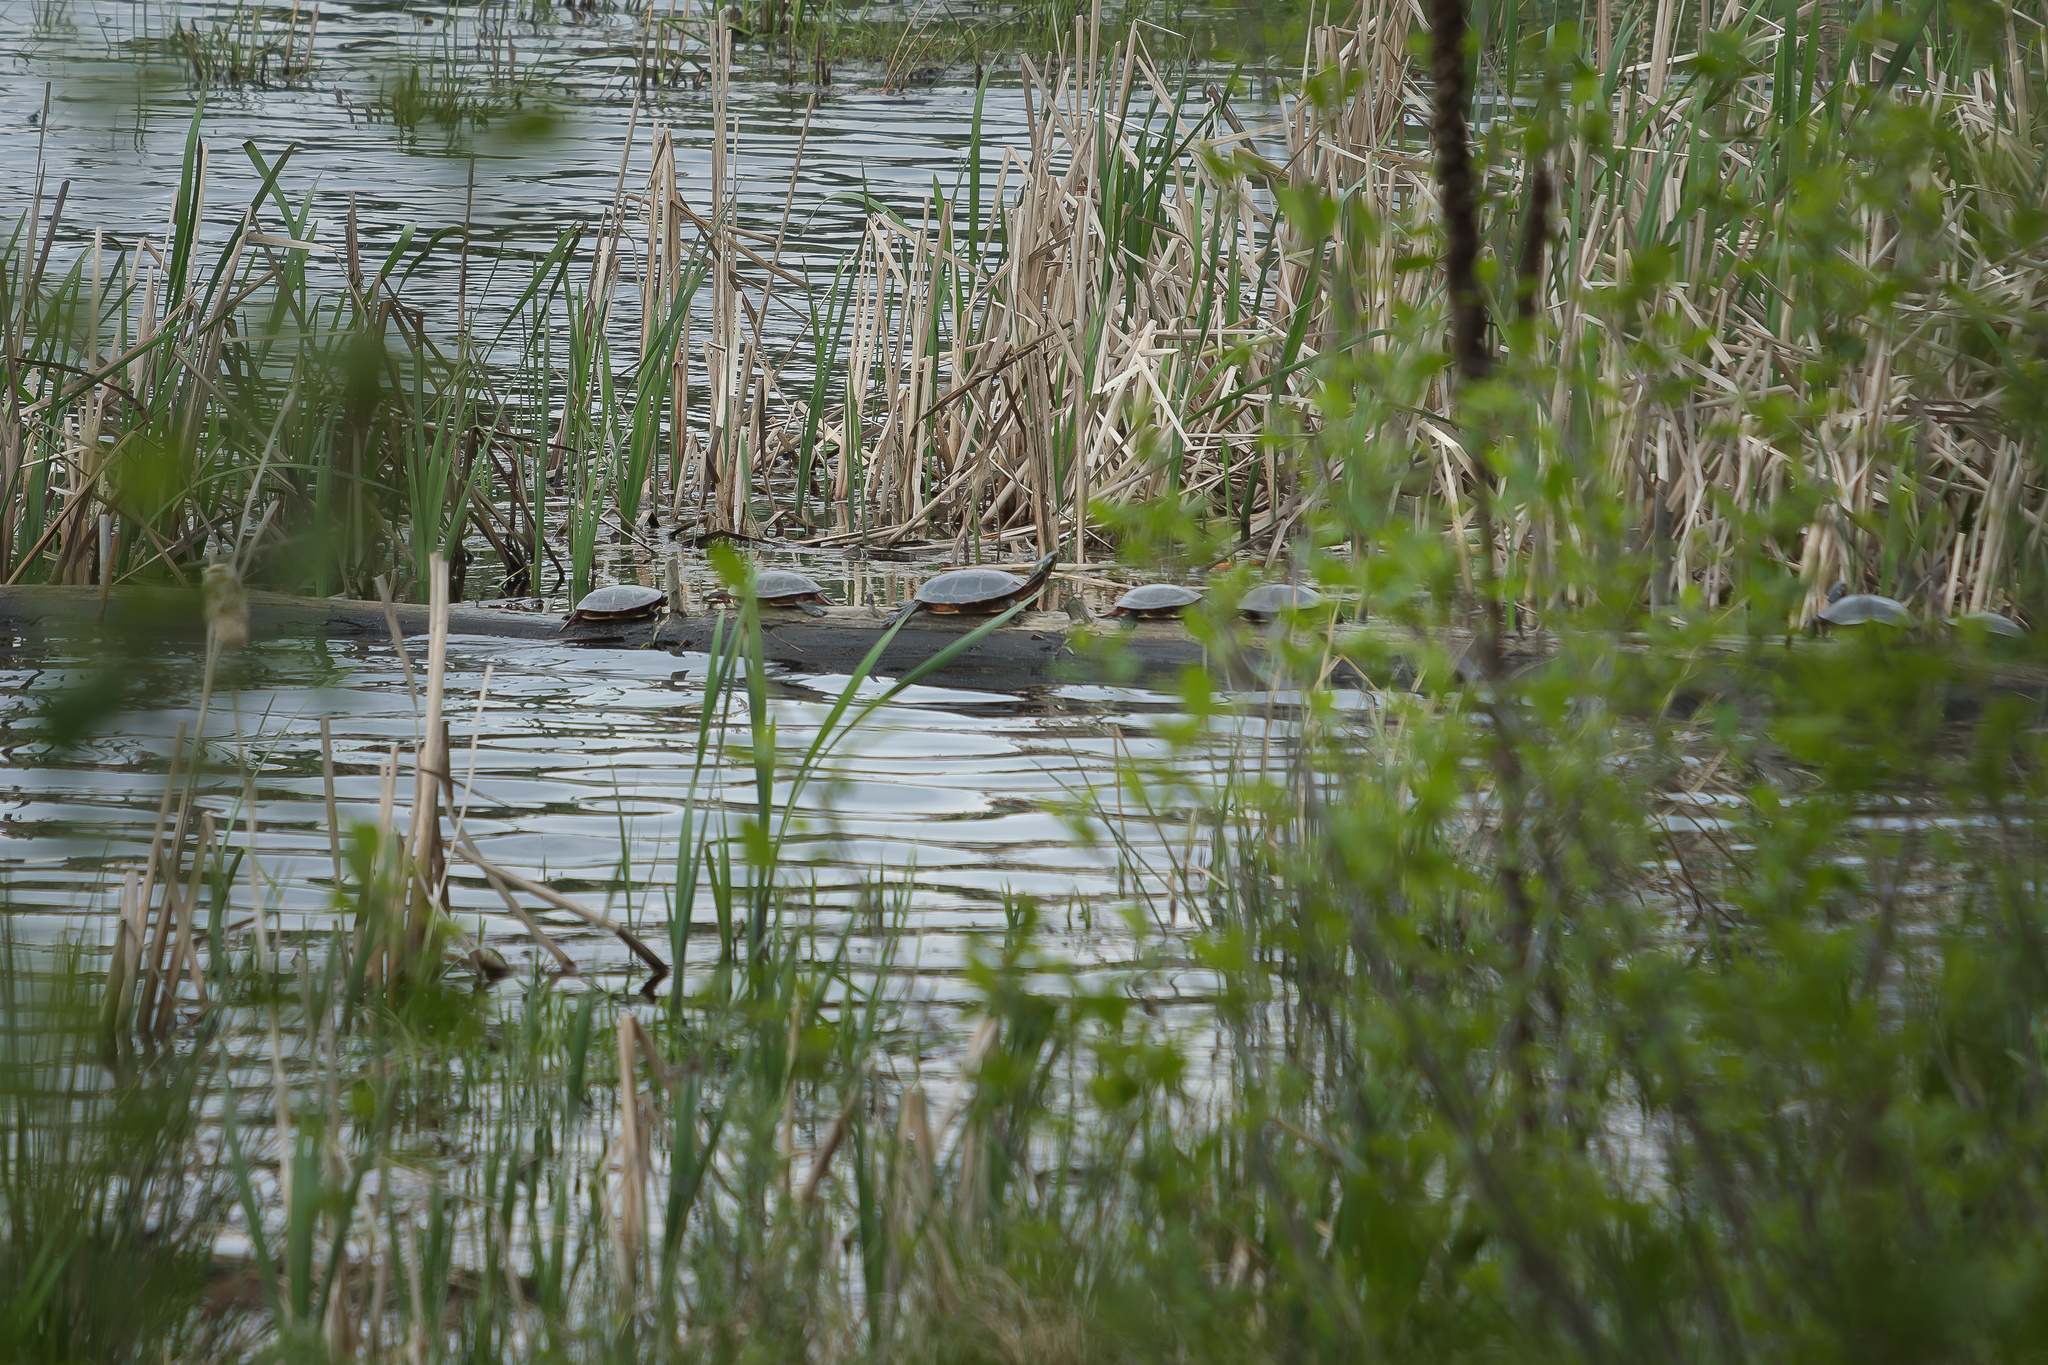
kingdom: Animalia
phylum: Chordata
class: Testudines
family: Emydidae
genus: Chrysemys
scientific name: Chrysemys picta
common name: Painted turtle
